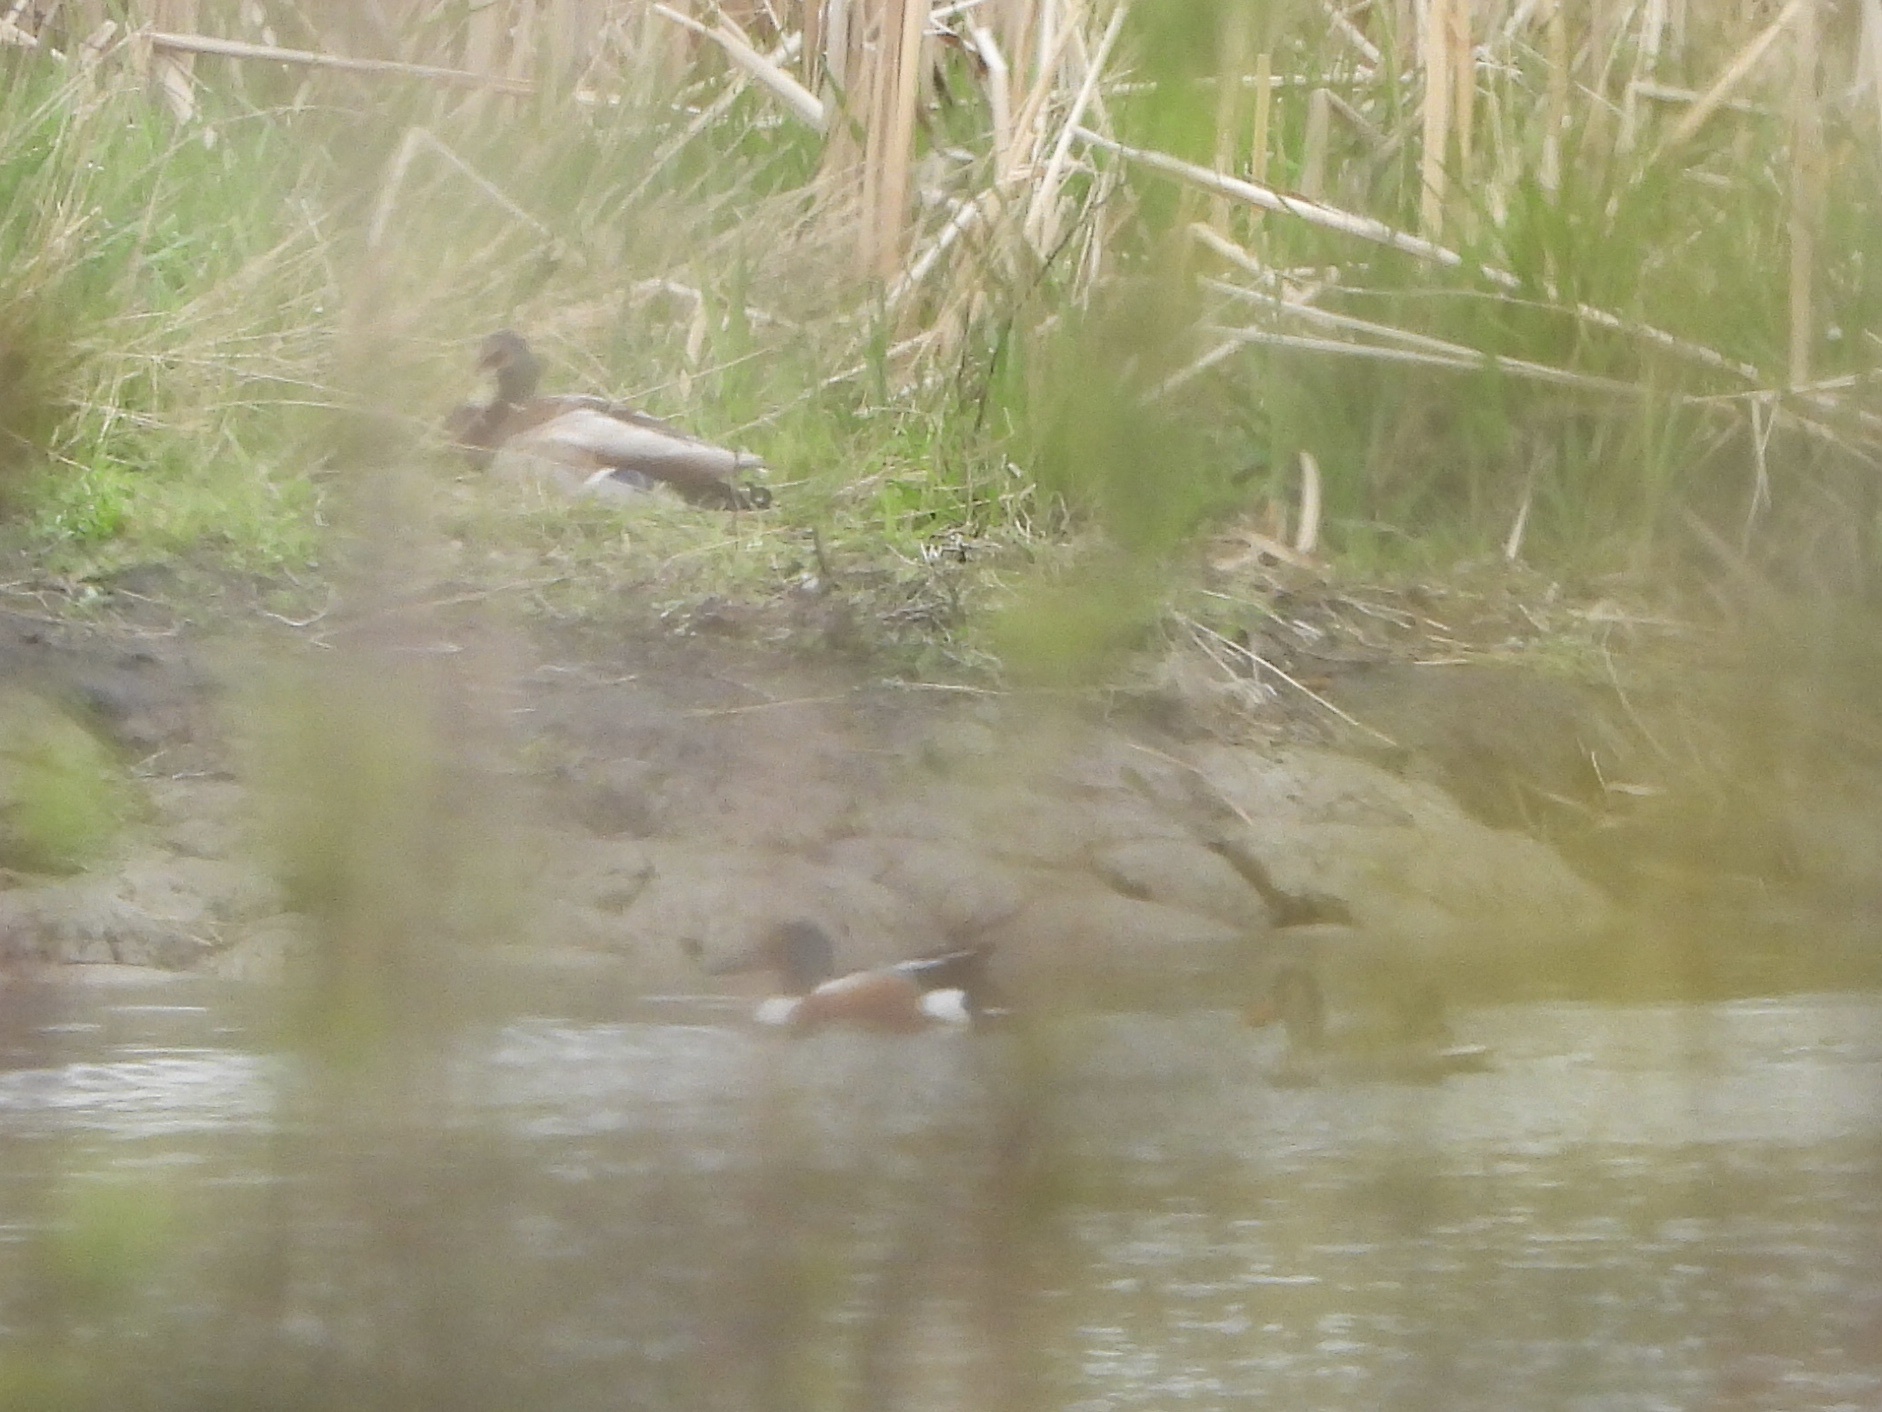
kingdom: Animalia
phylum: Chordata
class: Aves
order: Anseriformes
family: Anatidae
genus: Spatula
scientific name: Spatula clypeata
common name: Northern shoveler
